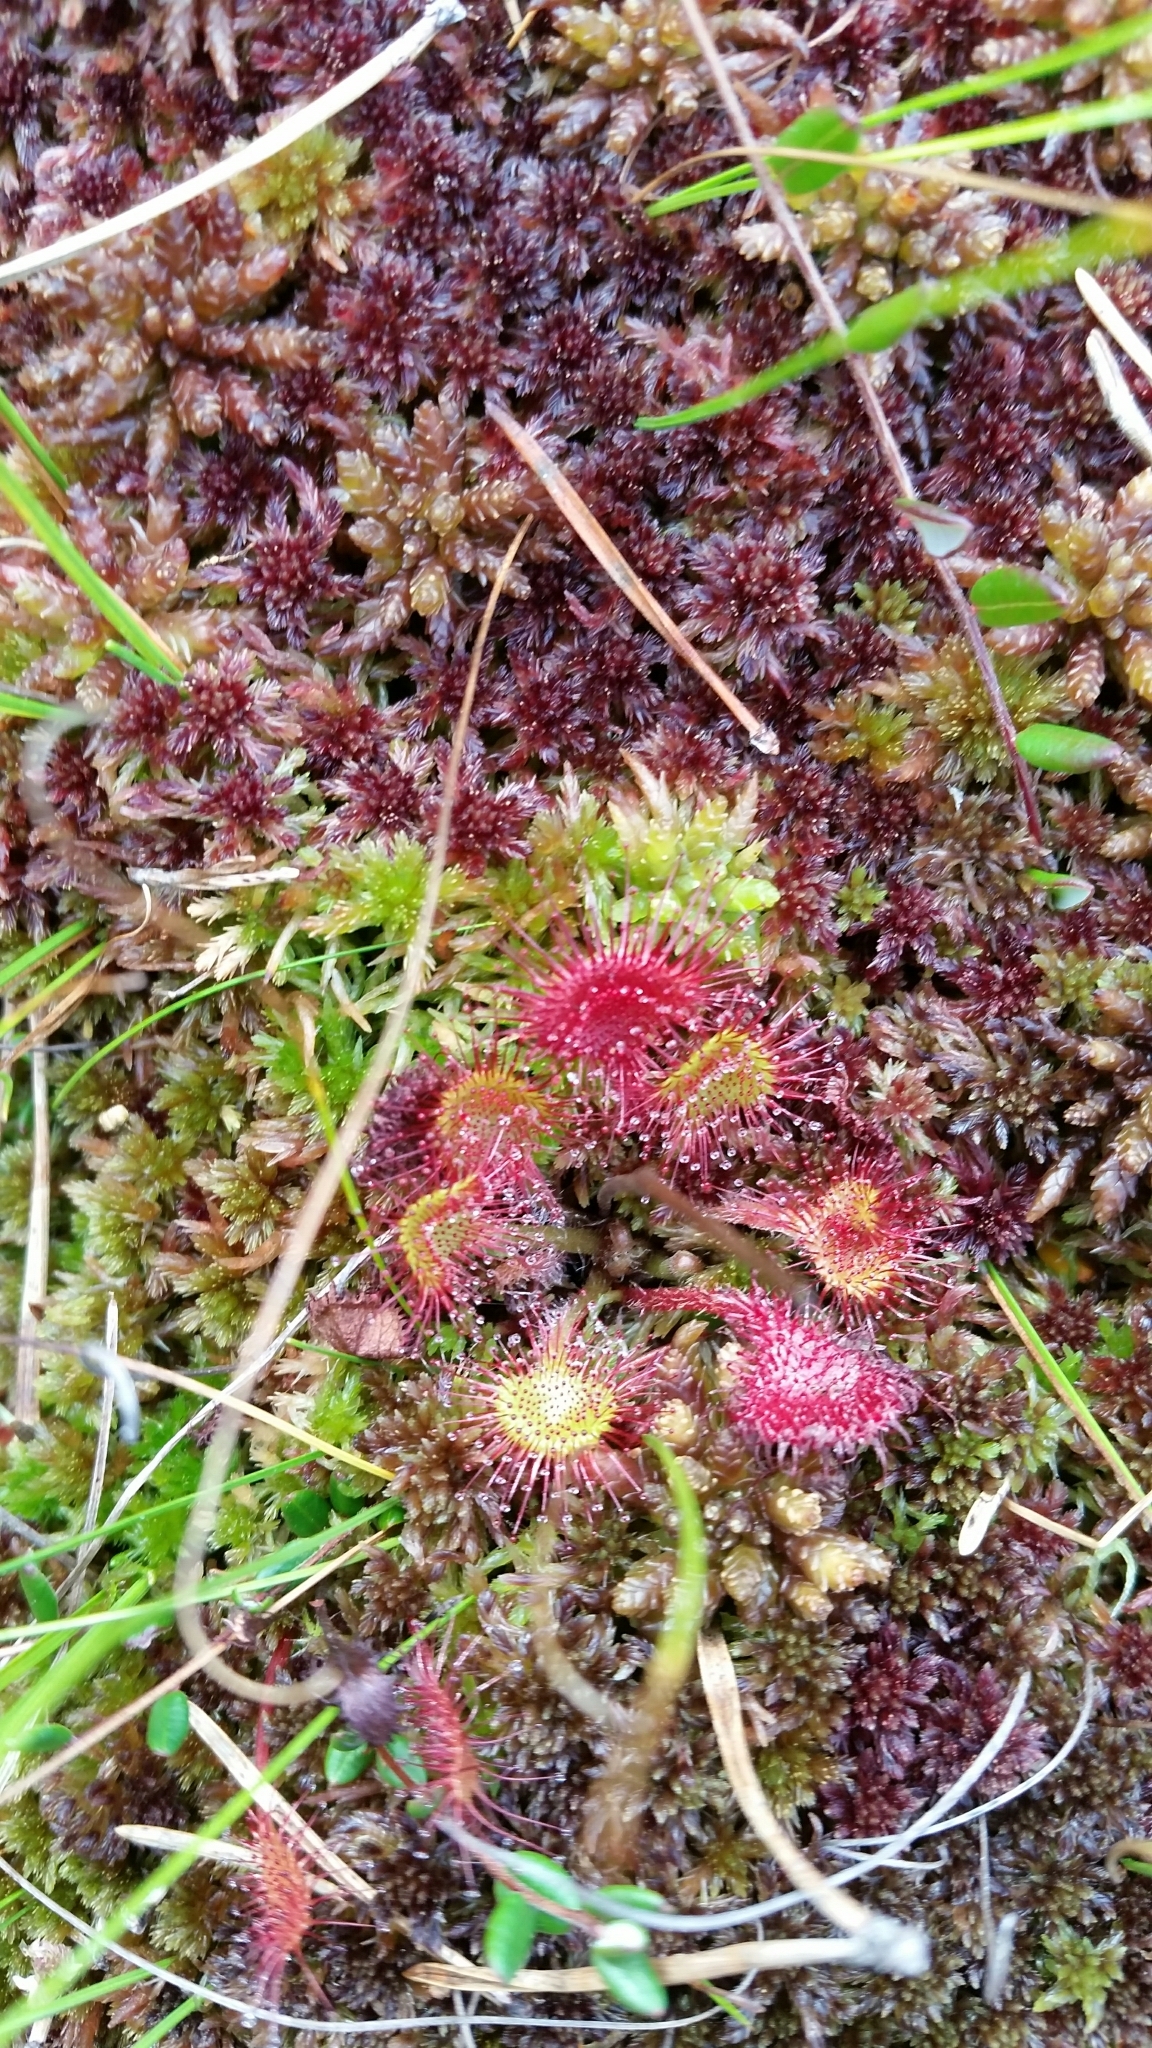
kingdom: Plantae
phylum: Tracheophyta
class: Magnoliopsida
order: Caryophyllales
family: Droseraceae
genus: Drosera
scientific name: Drosera rotundifolia
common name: Round-leaved sundew
